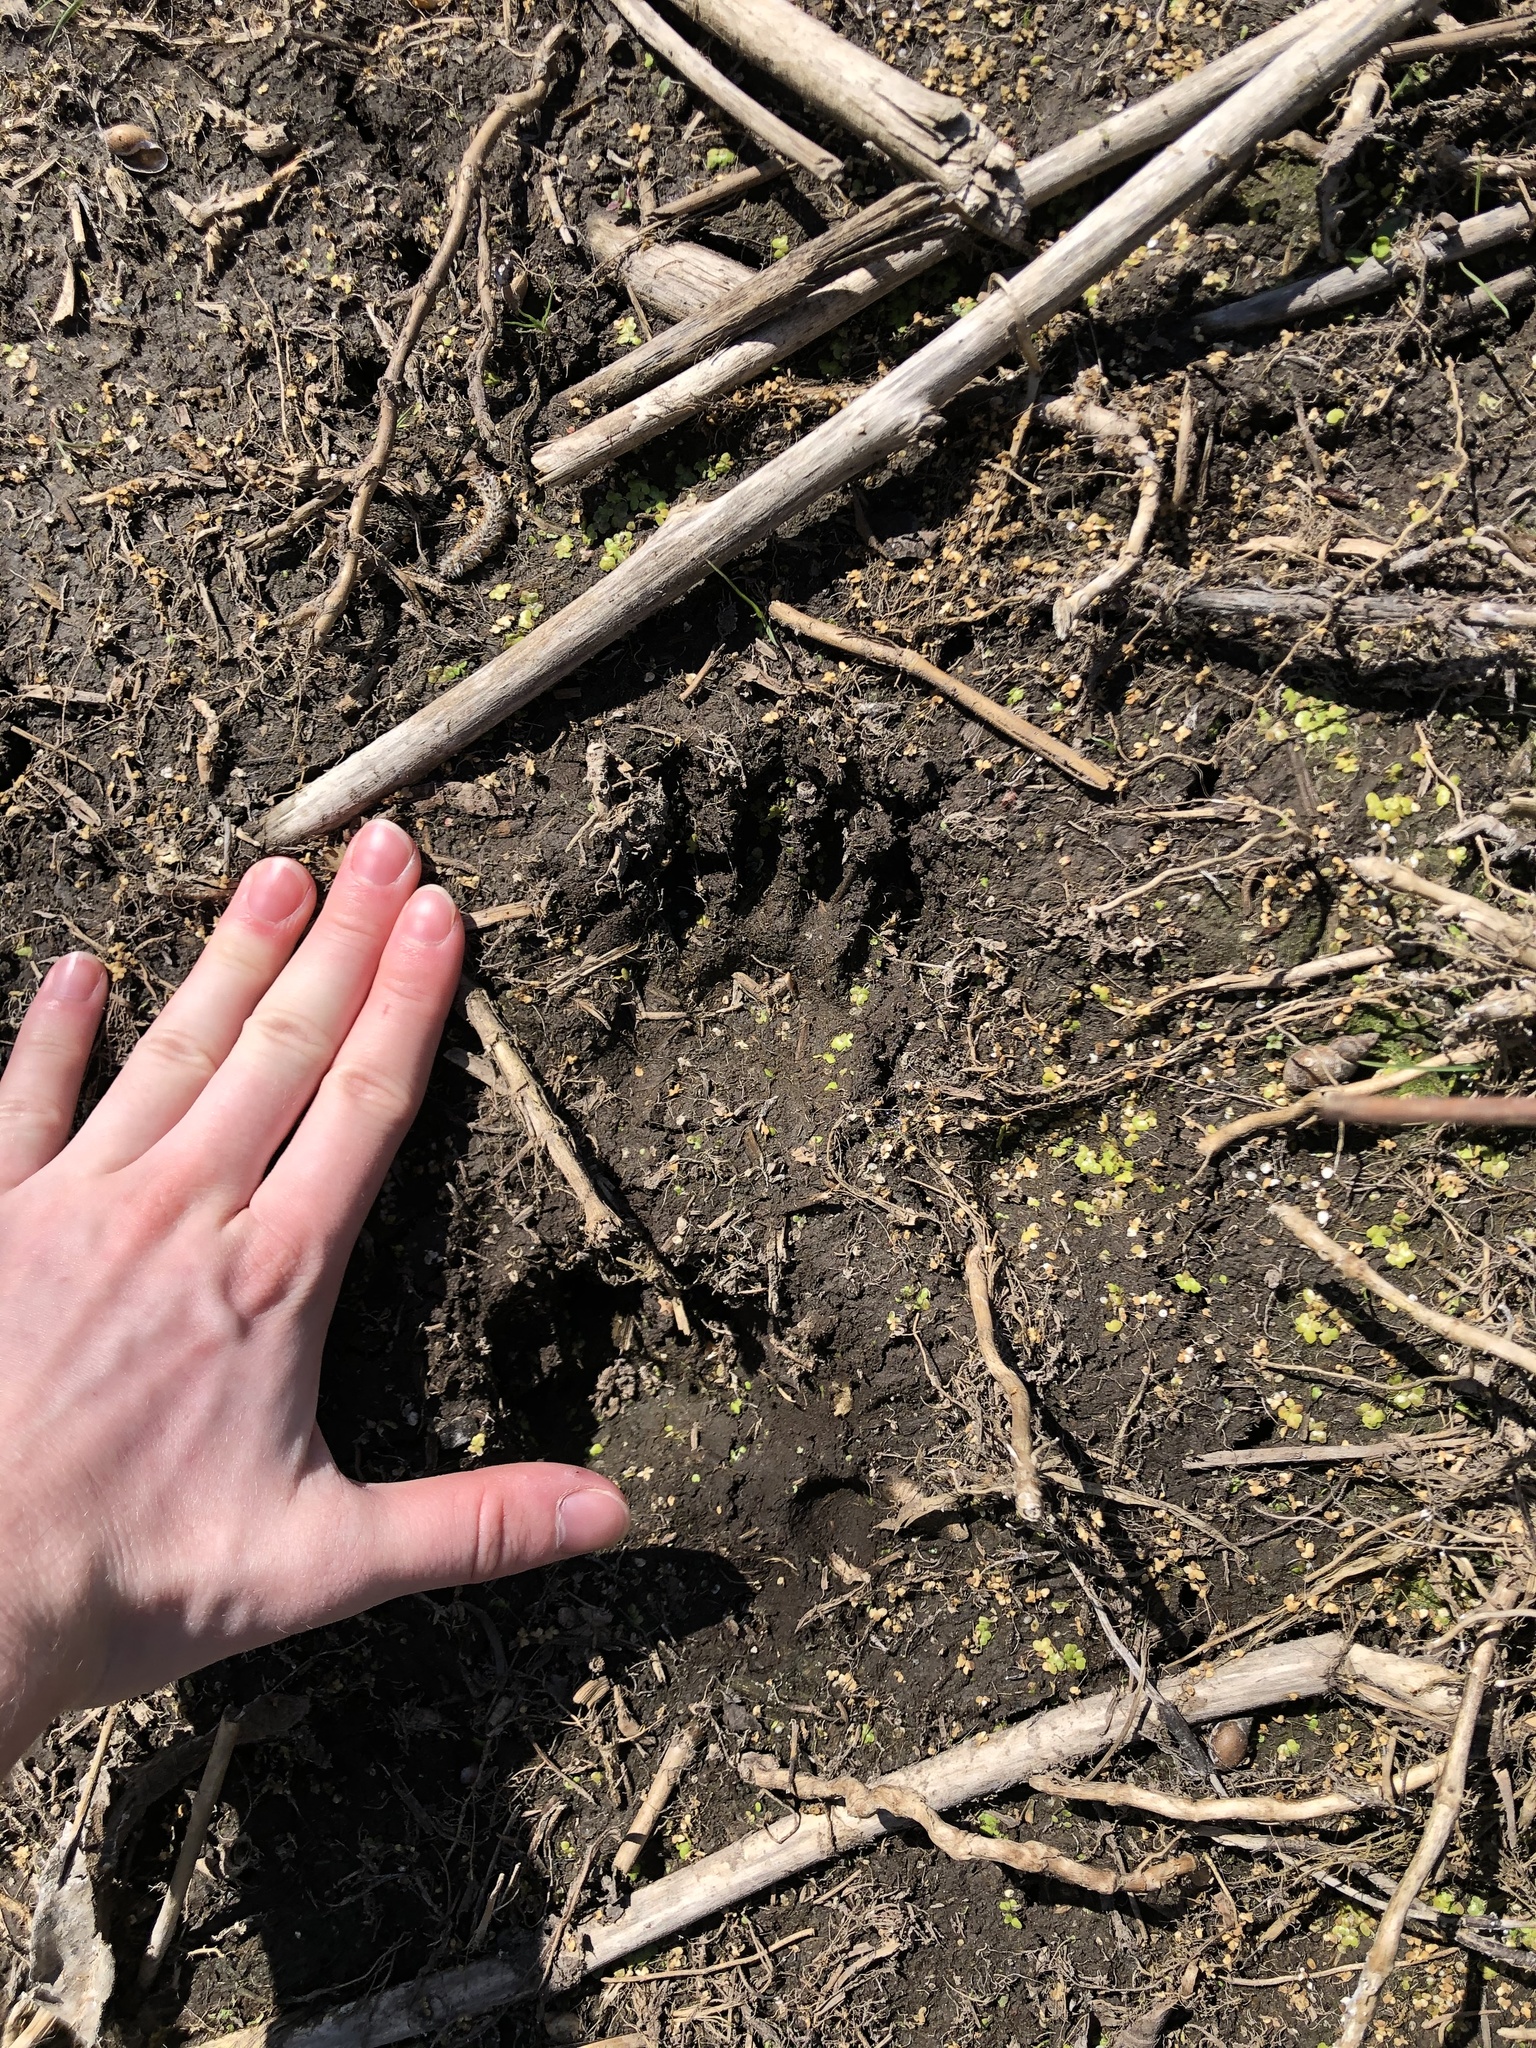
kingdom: Animalia
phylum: Chordata
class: Mammalia
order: Carnivora
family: Procyonidae
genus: Procyon
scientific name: Procyon lotor
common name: Raccoon
